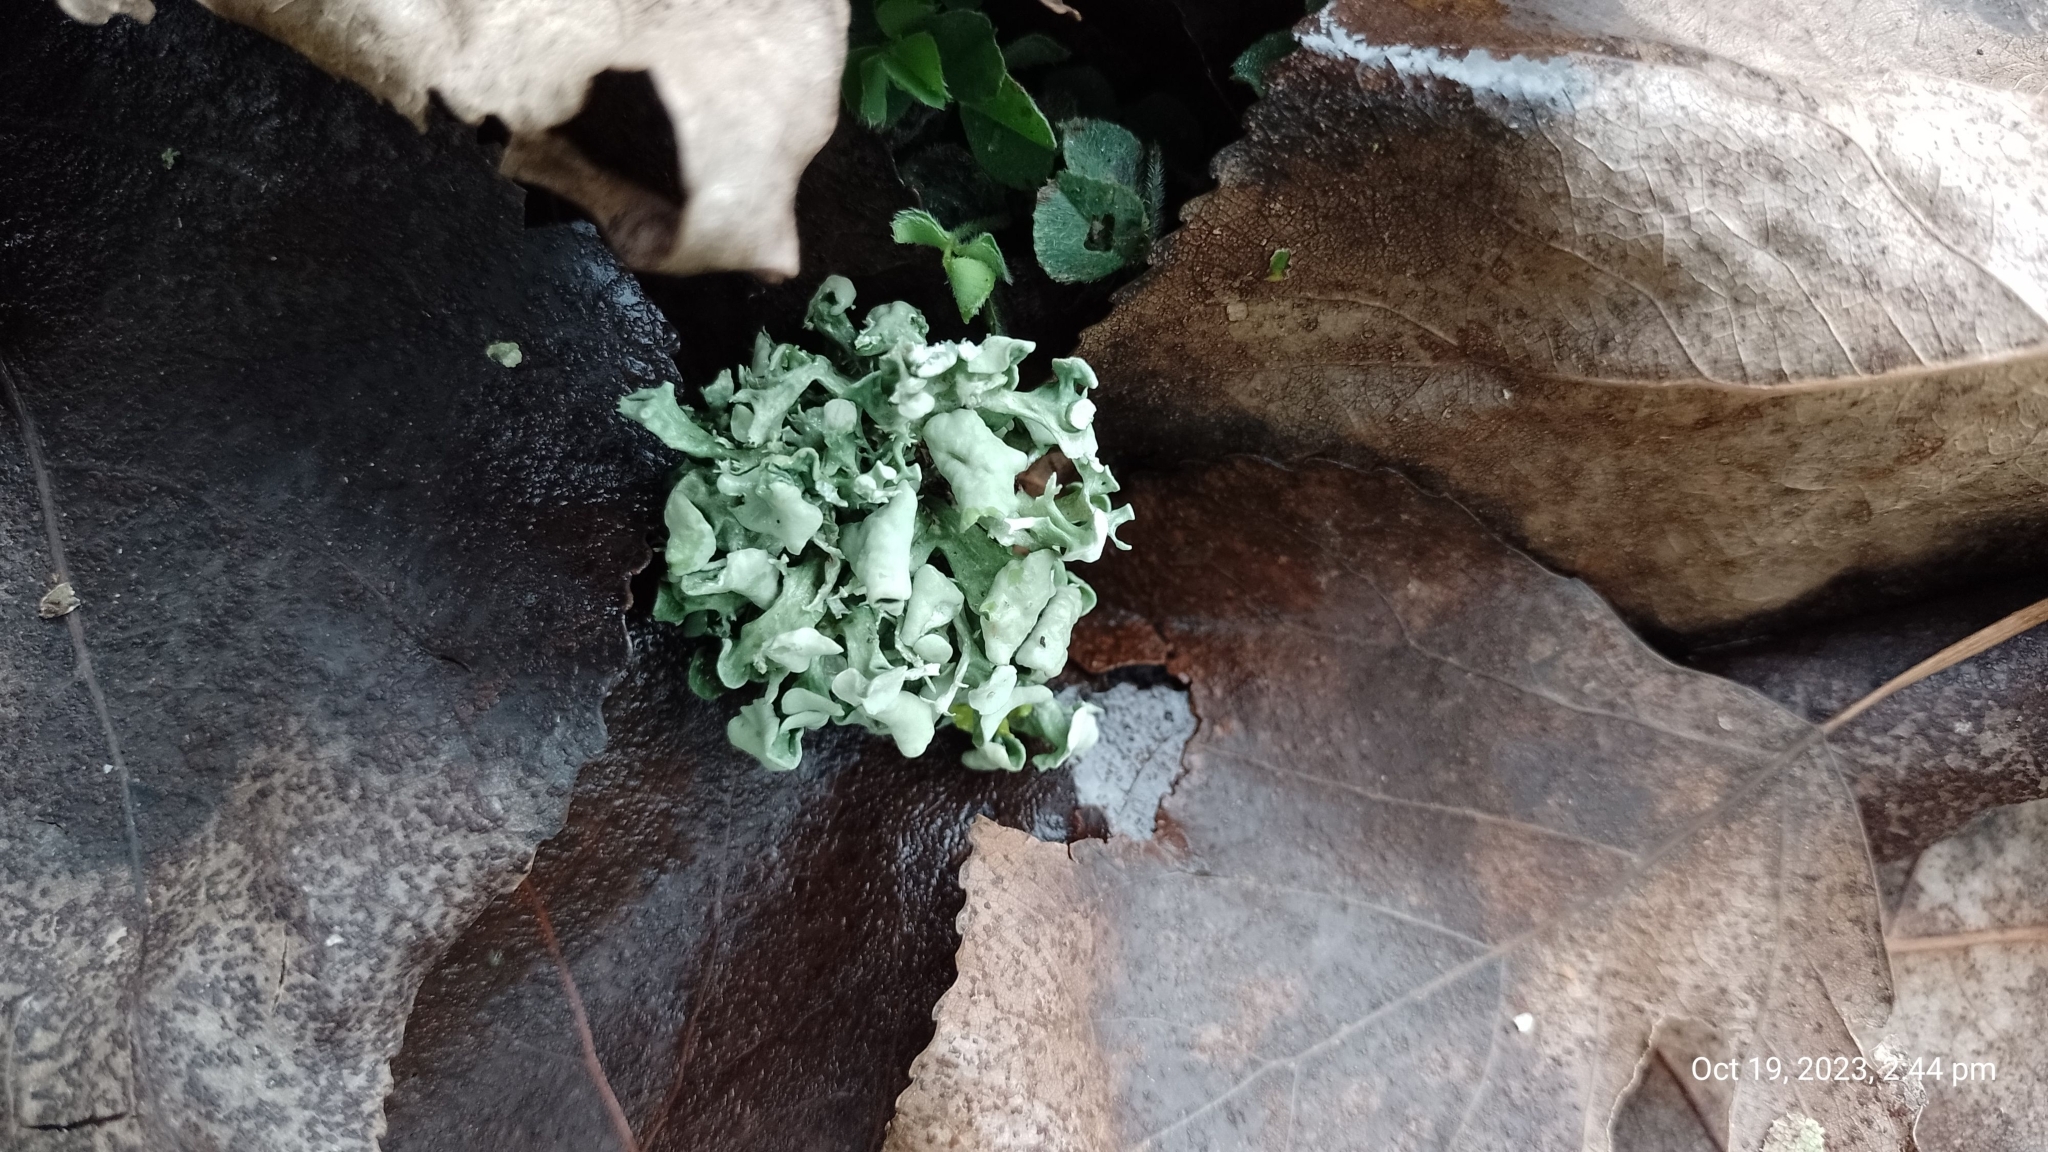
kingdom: Fungi
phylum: Ascomycota
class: Lecanoromycetes
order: Lecanorales
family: Ramalinaceae
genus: Ramalina
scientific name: Ramalina fastigiata
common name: Dotted ribbon lichen
